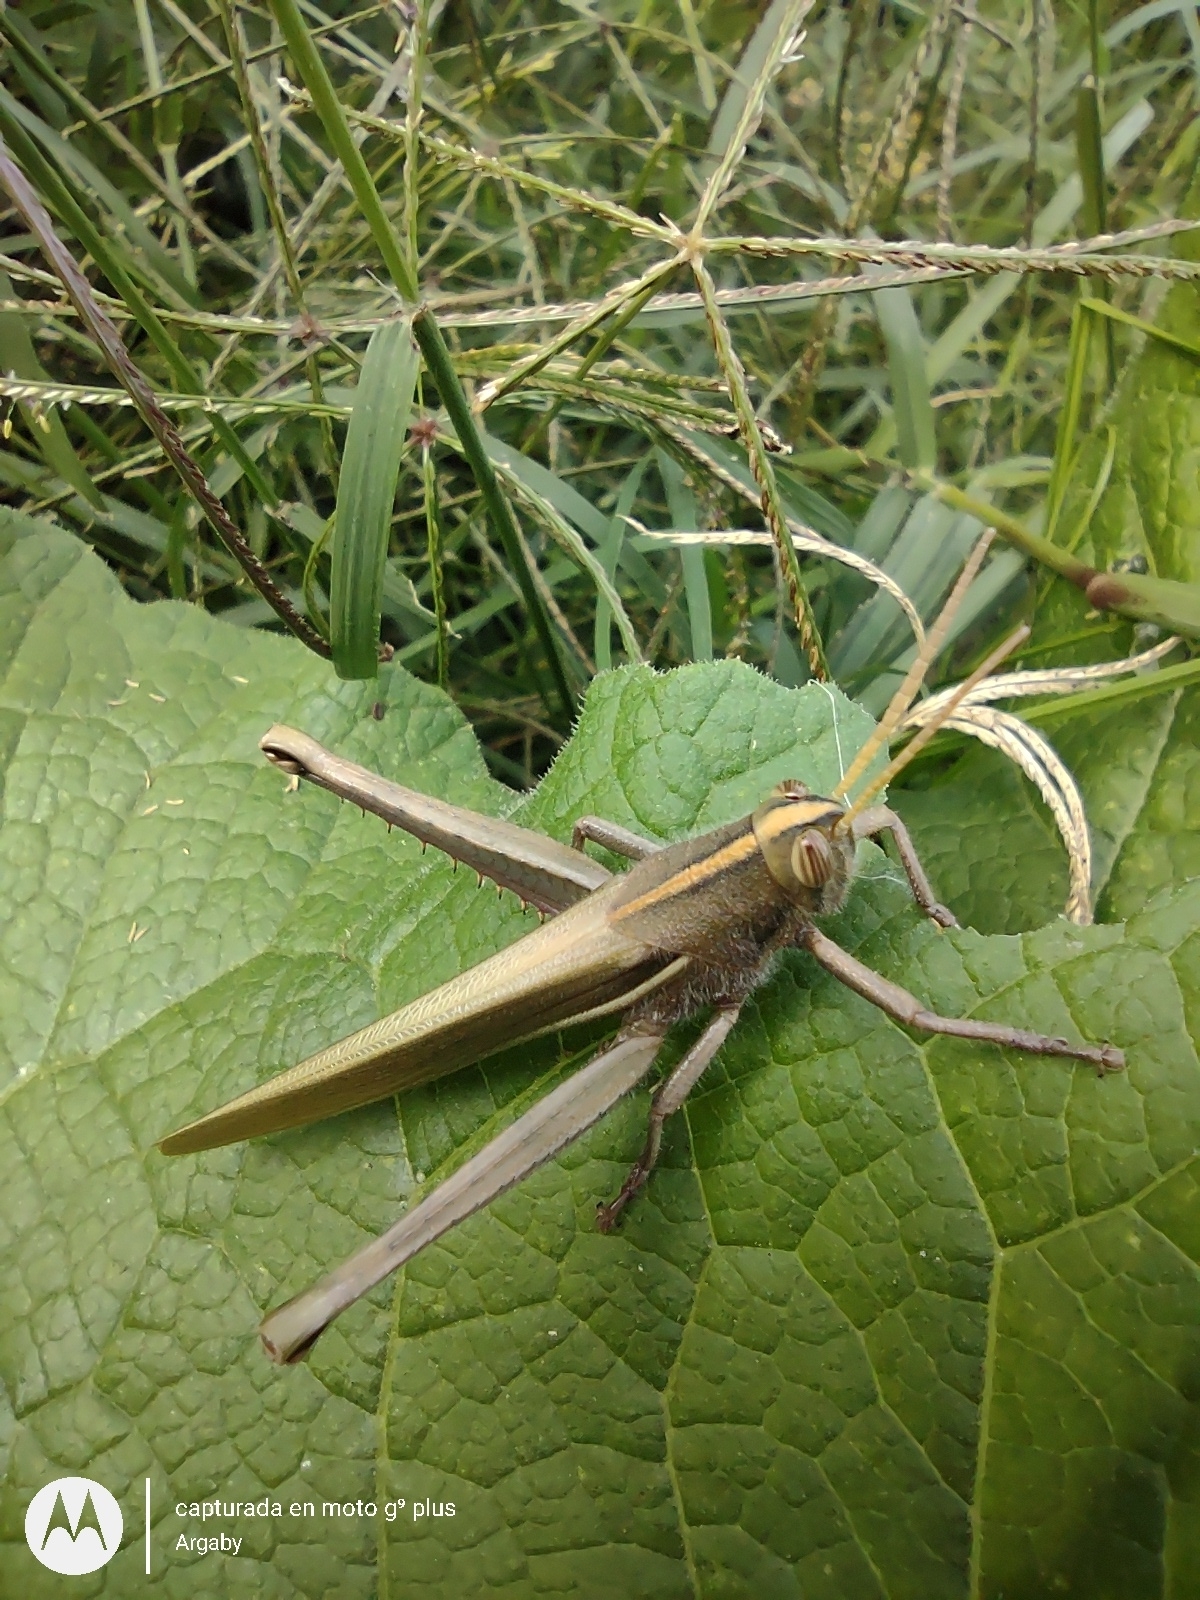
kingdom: Animalia
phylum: Arthropoda
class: Insecta
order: Orthoptera
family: Acrididae
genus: Schistocerca
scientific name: Schistocerca flavofasciata
